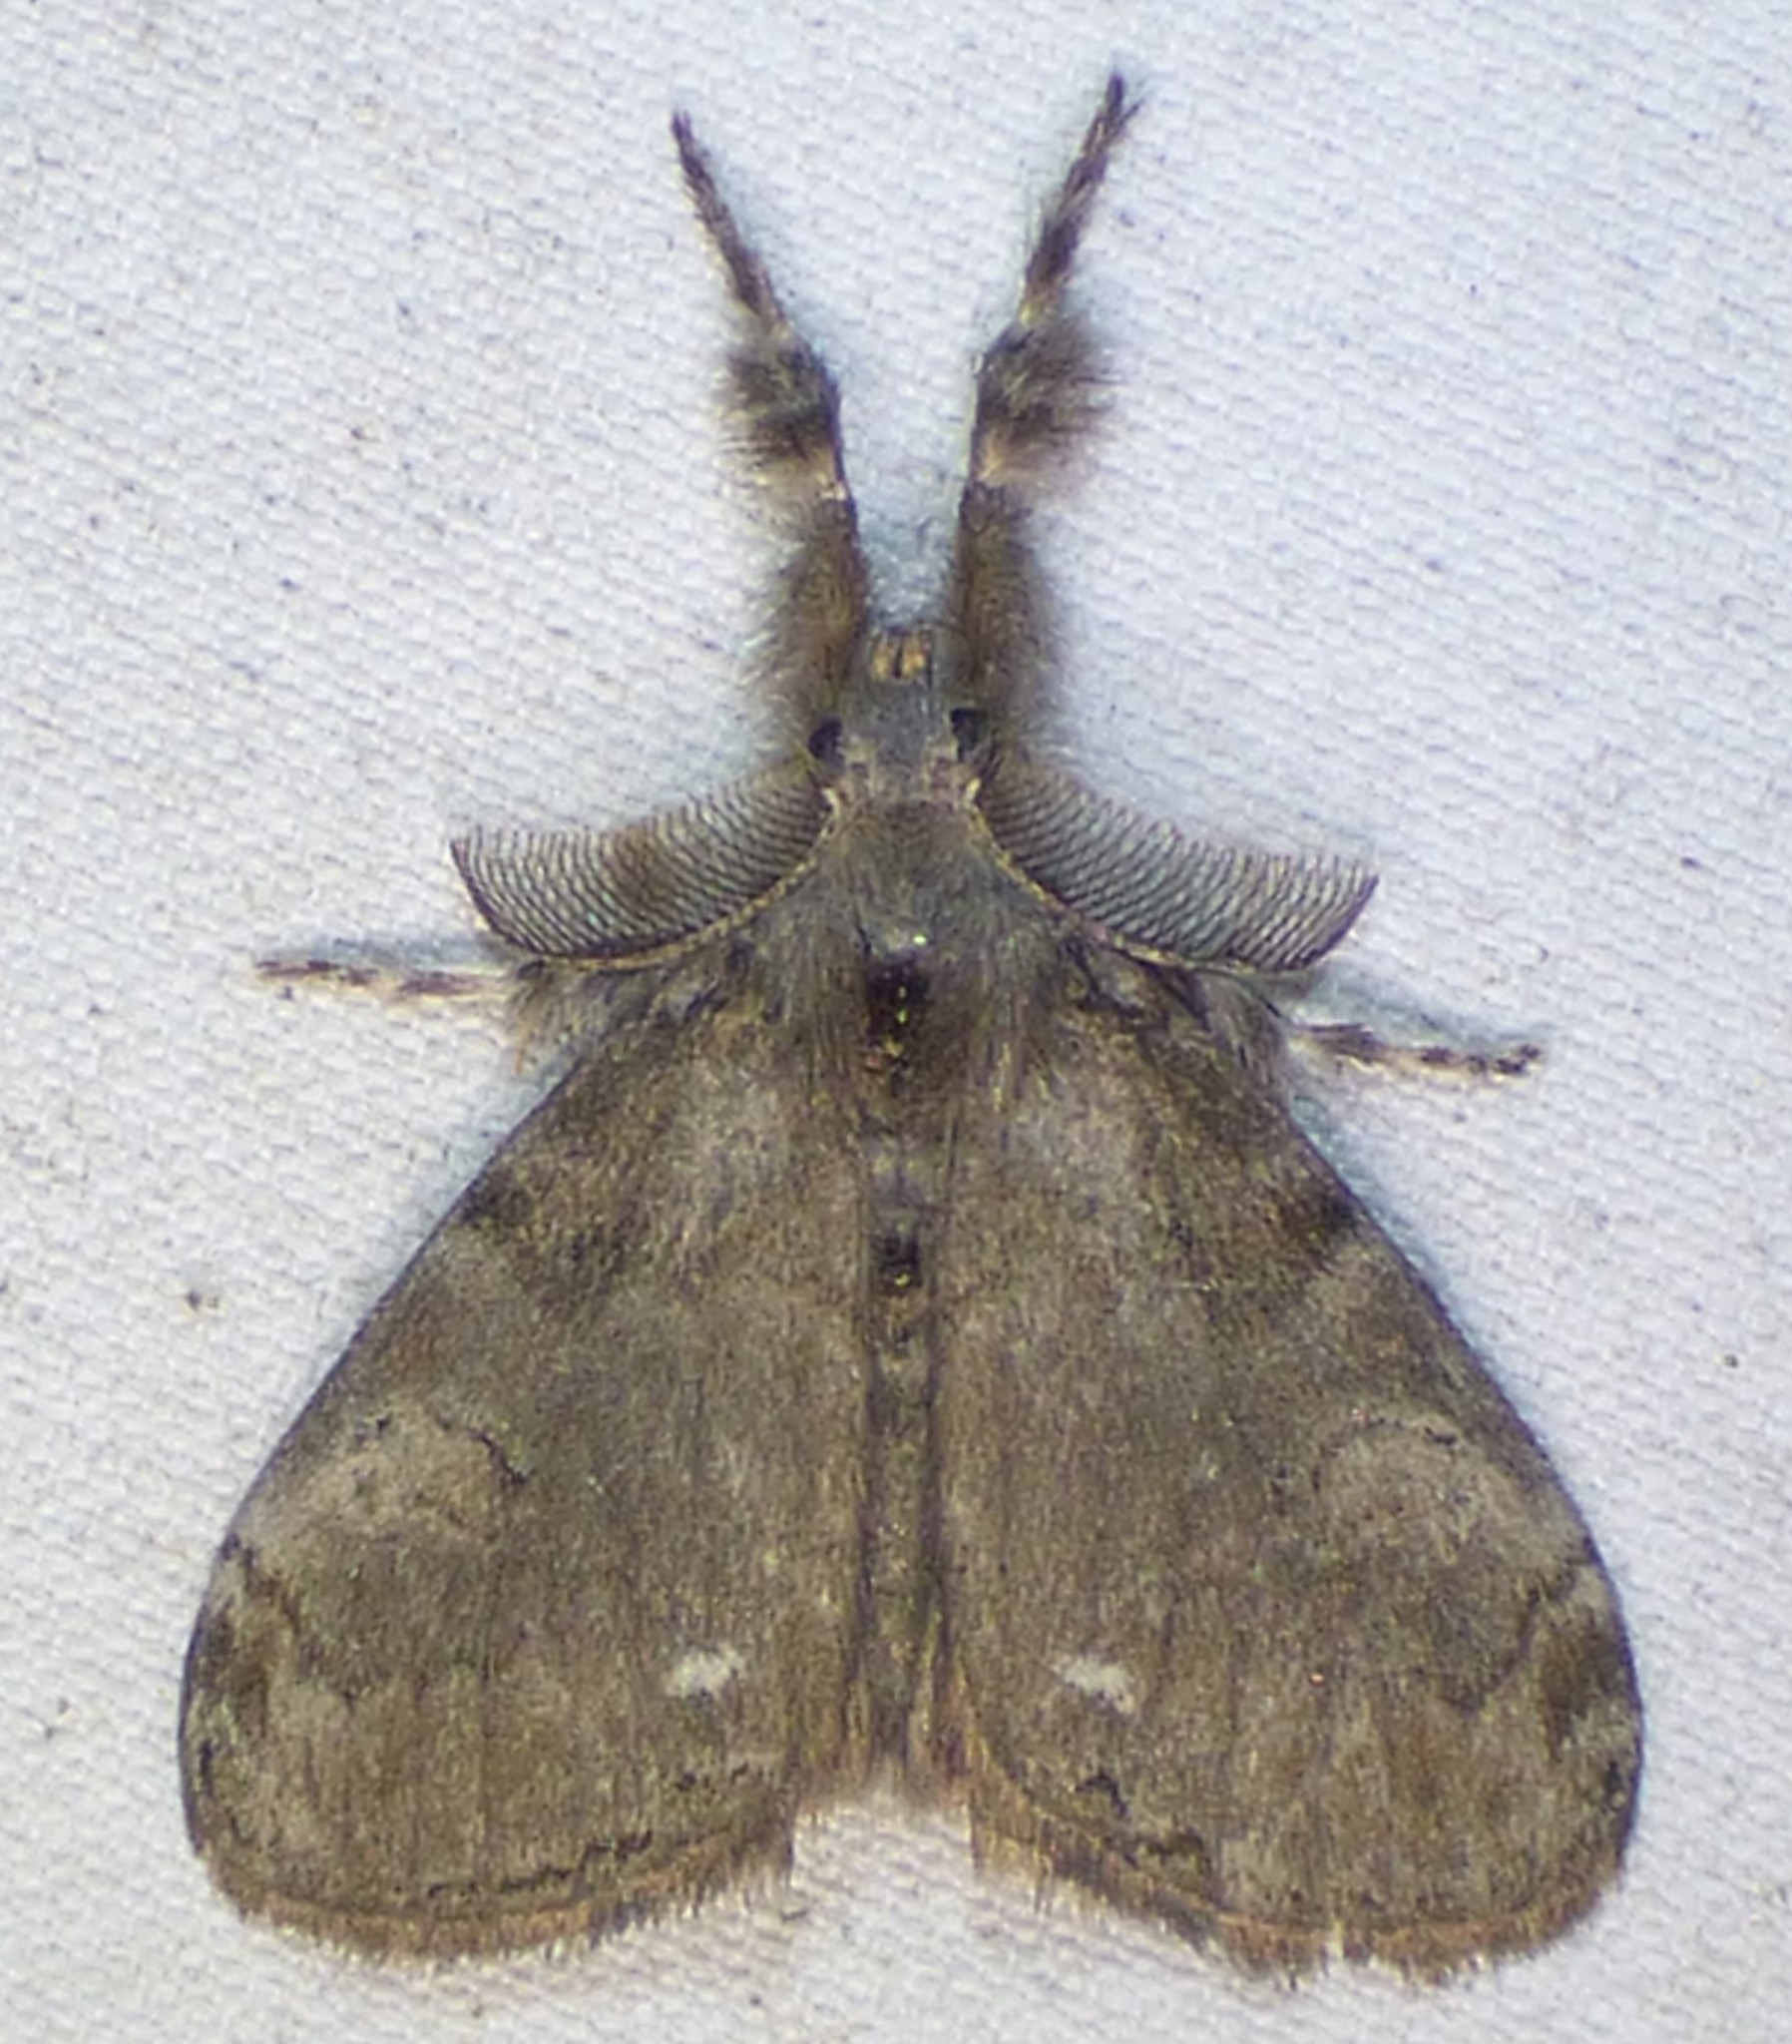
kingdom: Animalia
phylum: Arthropoda
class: Insecta
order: Lepidoptera
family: Erebidae
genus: Orgyia
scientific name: Orgyia leucostigma
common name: White-marked tussock moth
